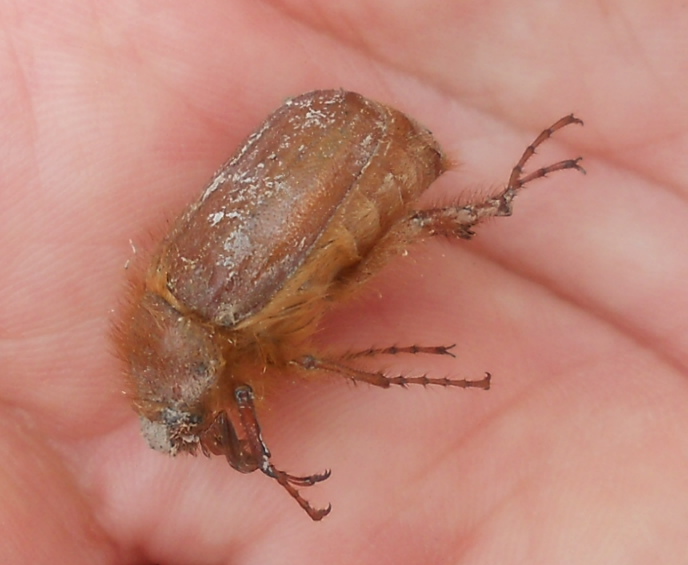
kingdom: Animalia
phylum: Arthropoda
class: Insecta
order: Coleoptera
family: Scarabaeidae
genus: Amphimallon
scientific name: Amphimallon solstitiale
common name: Summer chafer
